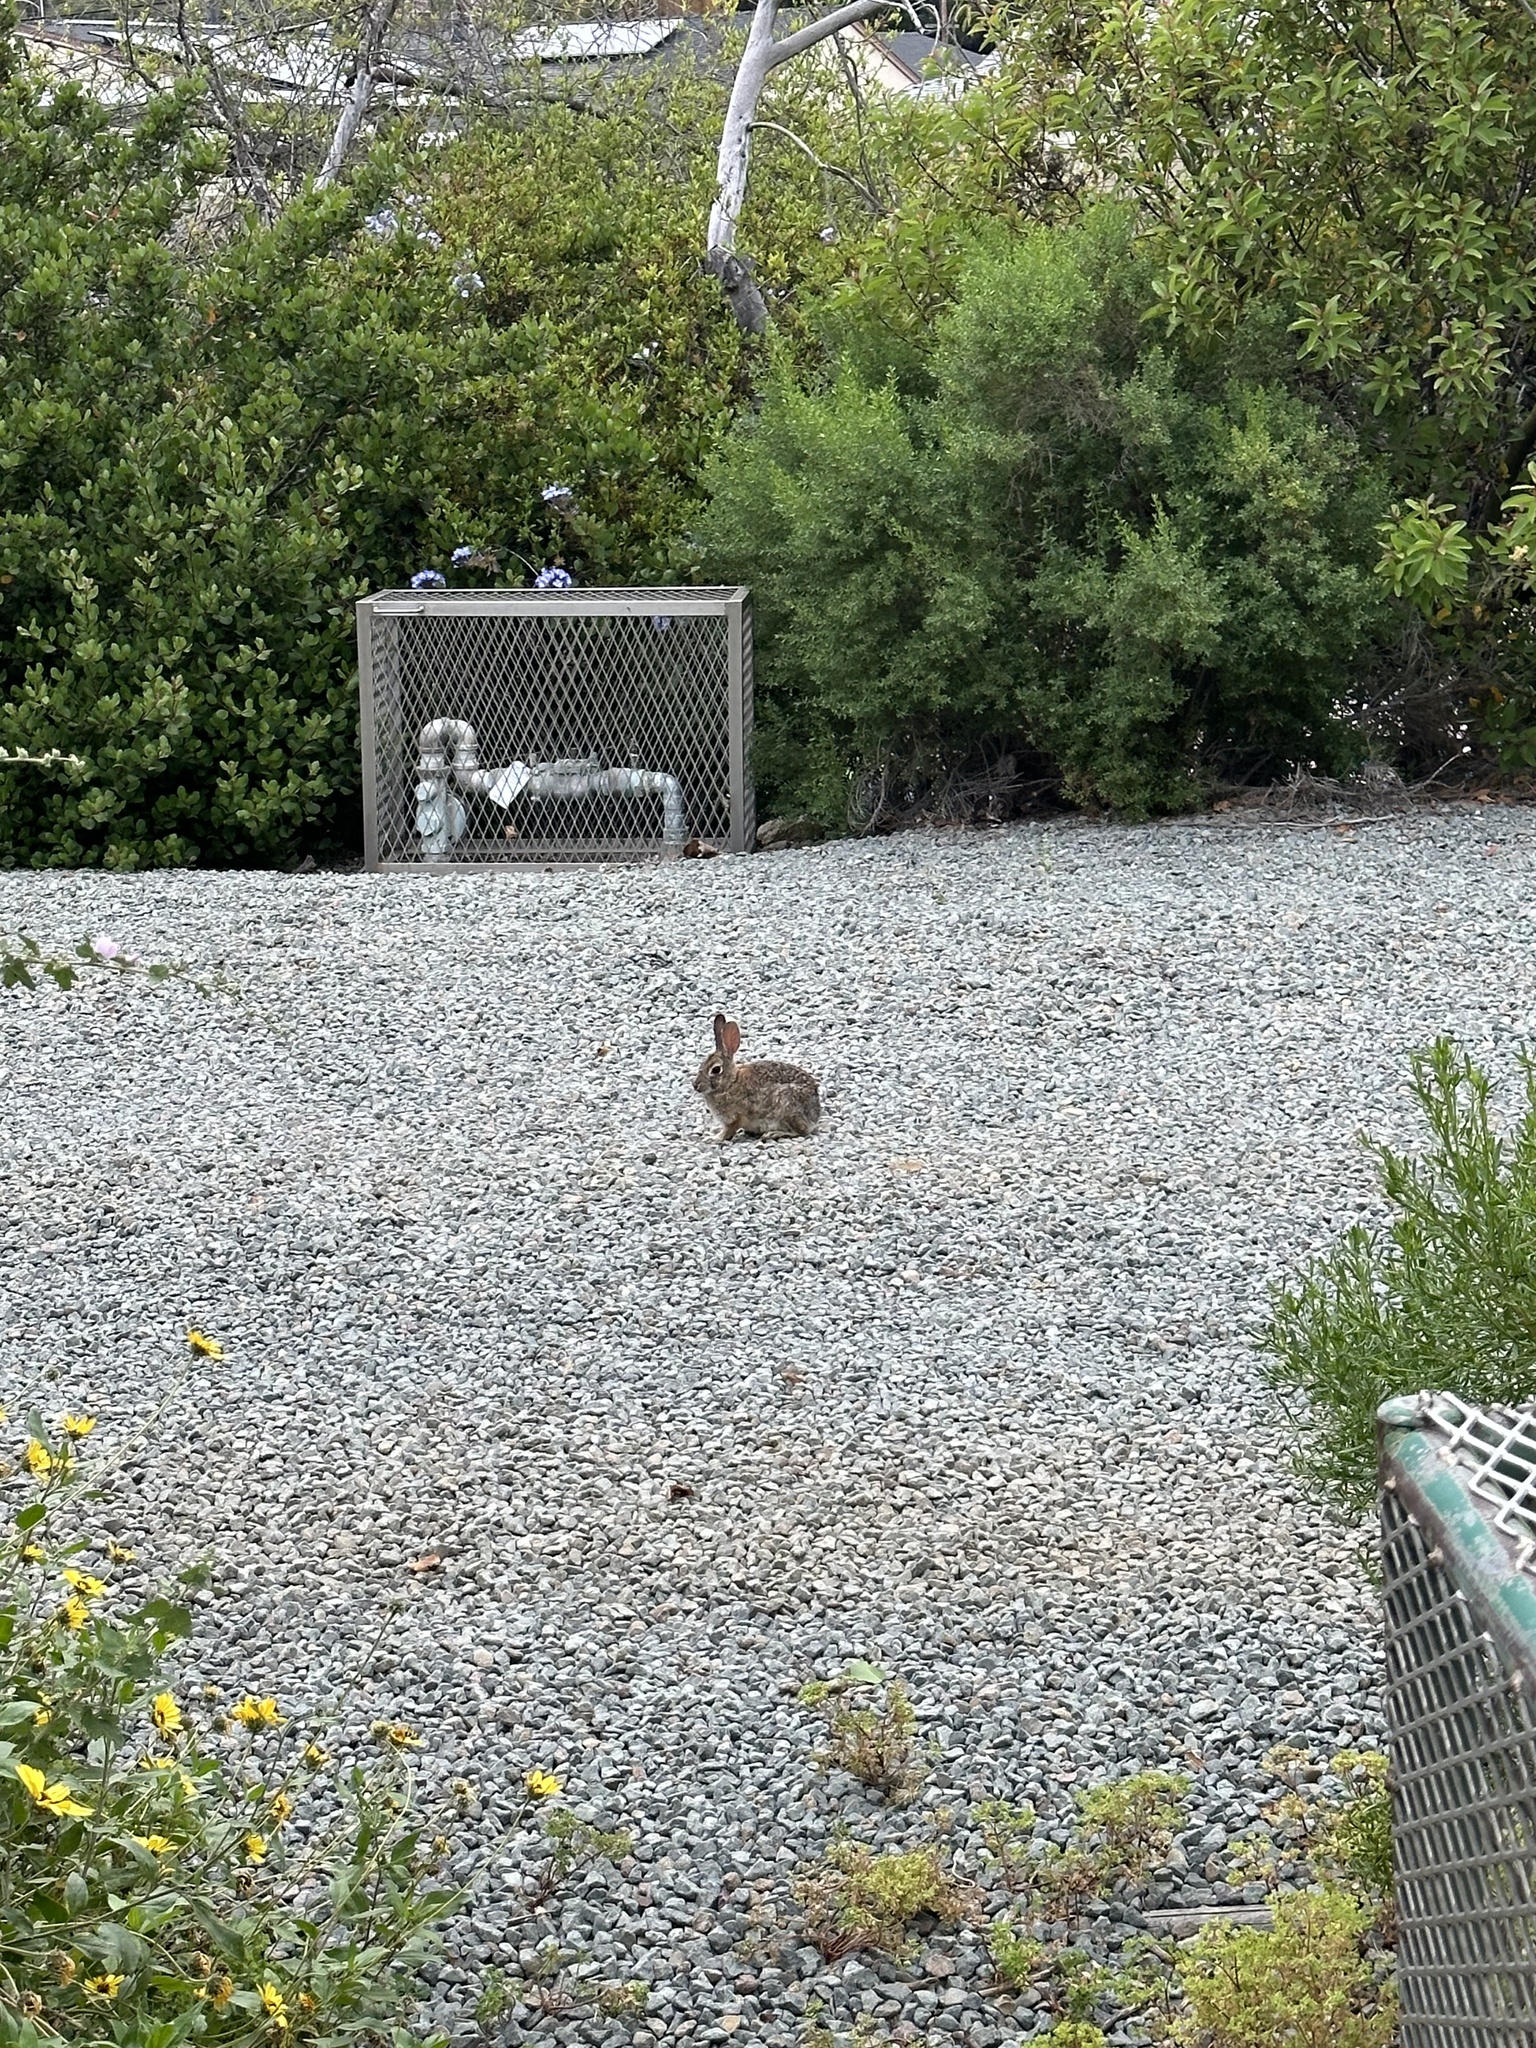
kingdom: Animalia
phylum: Chordata
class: Mammalia
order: Lagomorpha
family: Leporidae
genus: Sylvilagus
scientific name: Sylvilagus audubonii
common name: Desert cottontail
